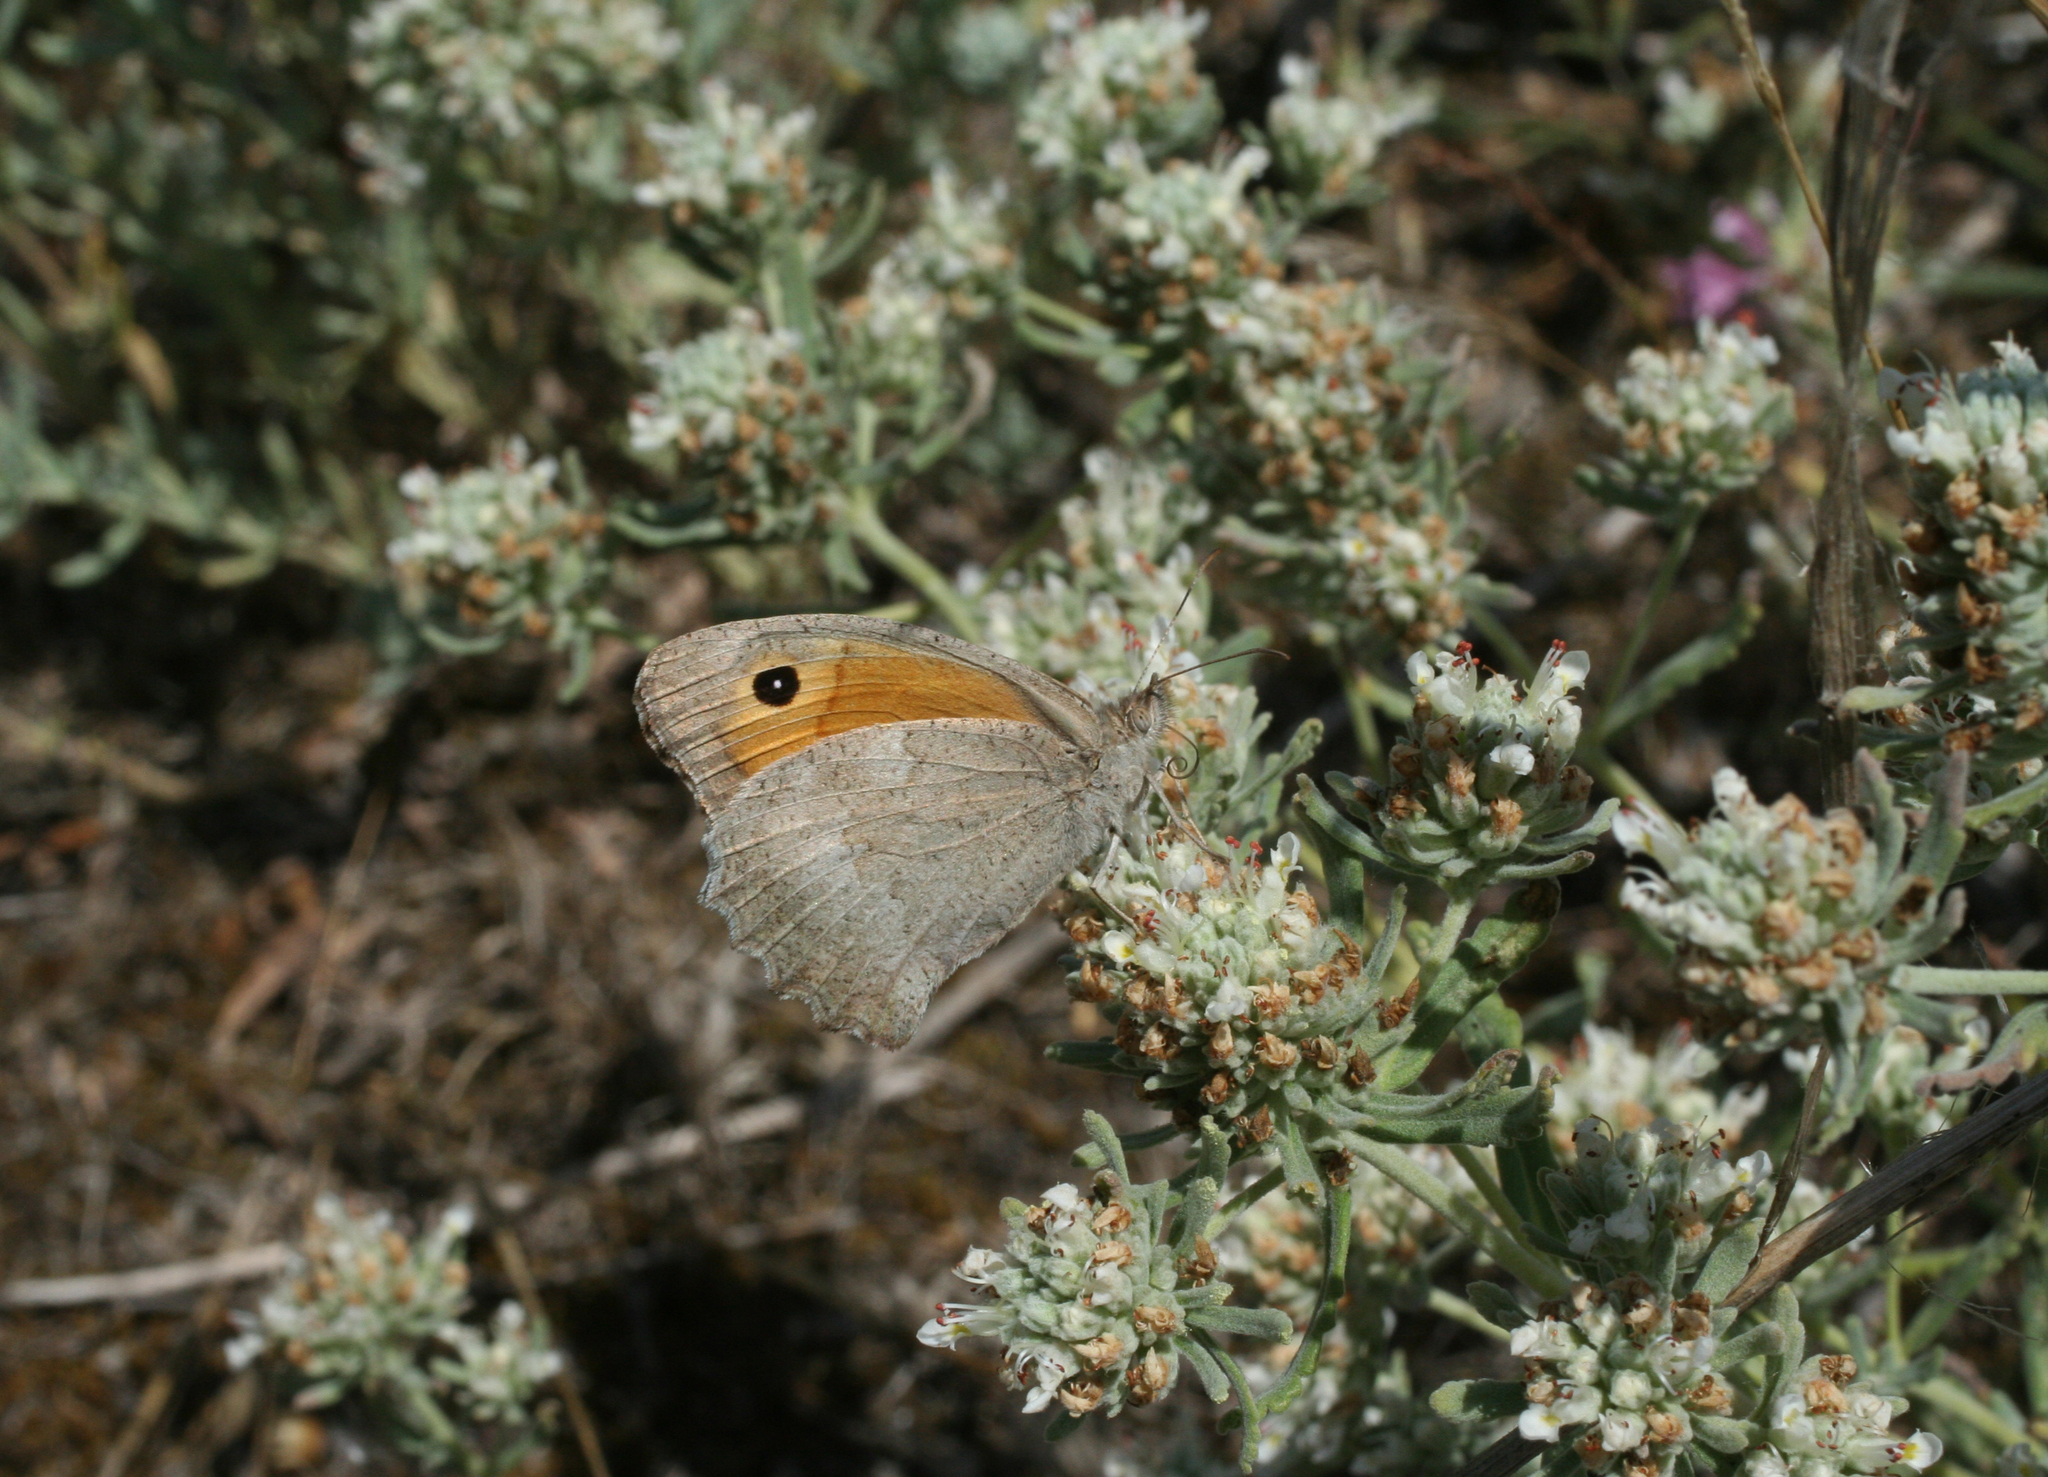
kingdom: Animalia
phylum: Arthropoda
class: Insecta
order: Lepidoptera
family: Nymphalidae
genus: Hyponephele
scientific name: Hyponephele lupinus
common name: Oriental meadow brown
